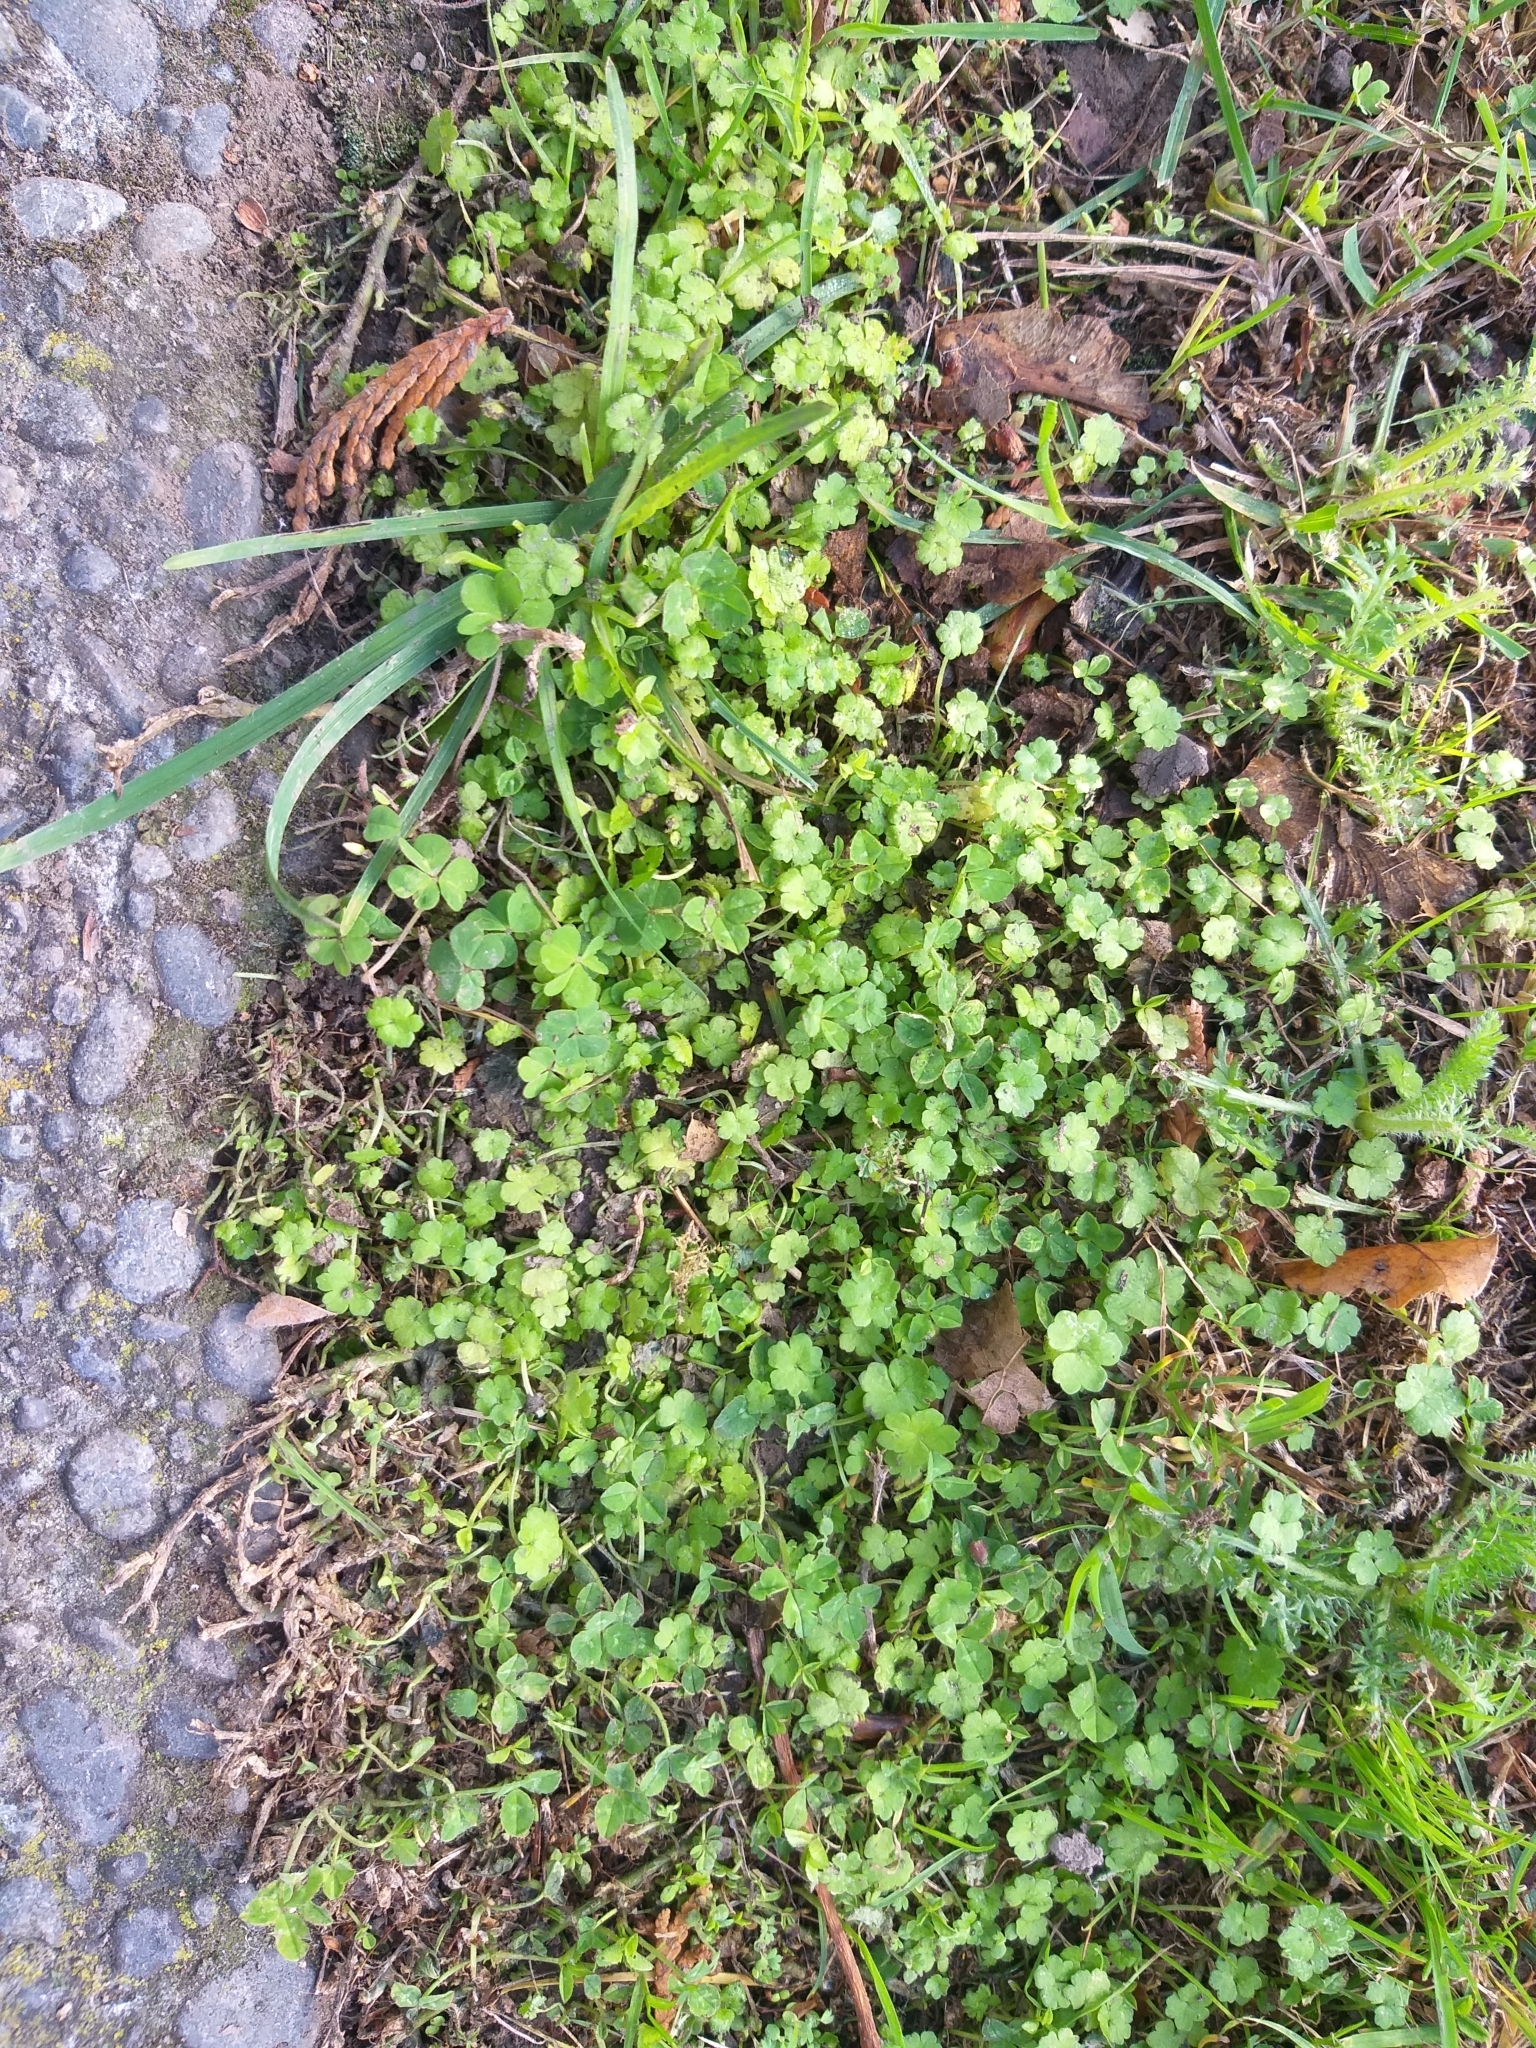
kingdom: Plantae
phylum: Tracheophyta
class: Magnoliopsida
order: Apiales
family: Araliaceae
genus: Hydrocotyle
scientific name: Hydrocotyle heteromeria
